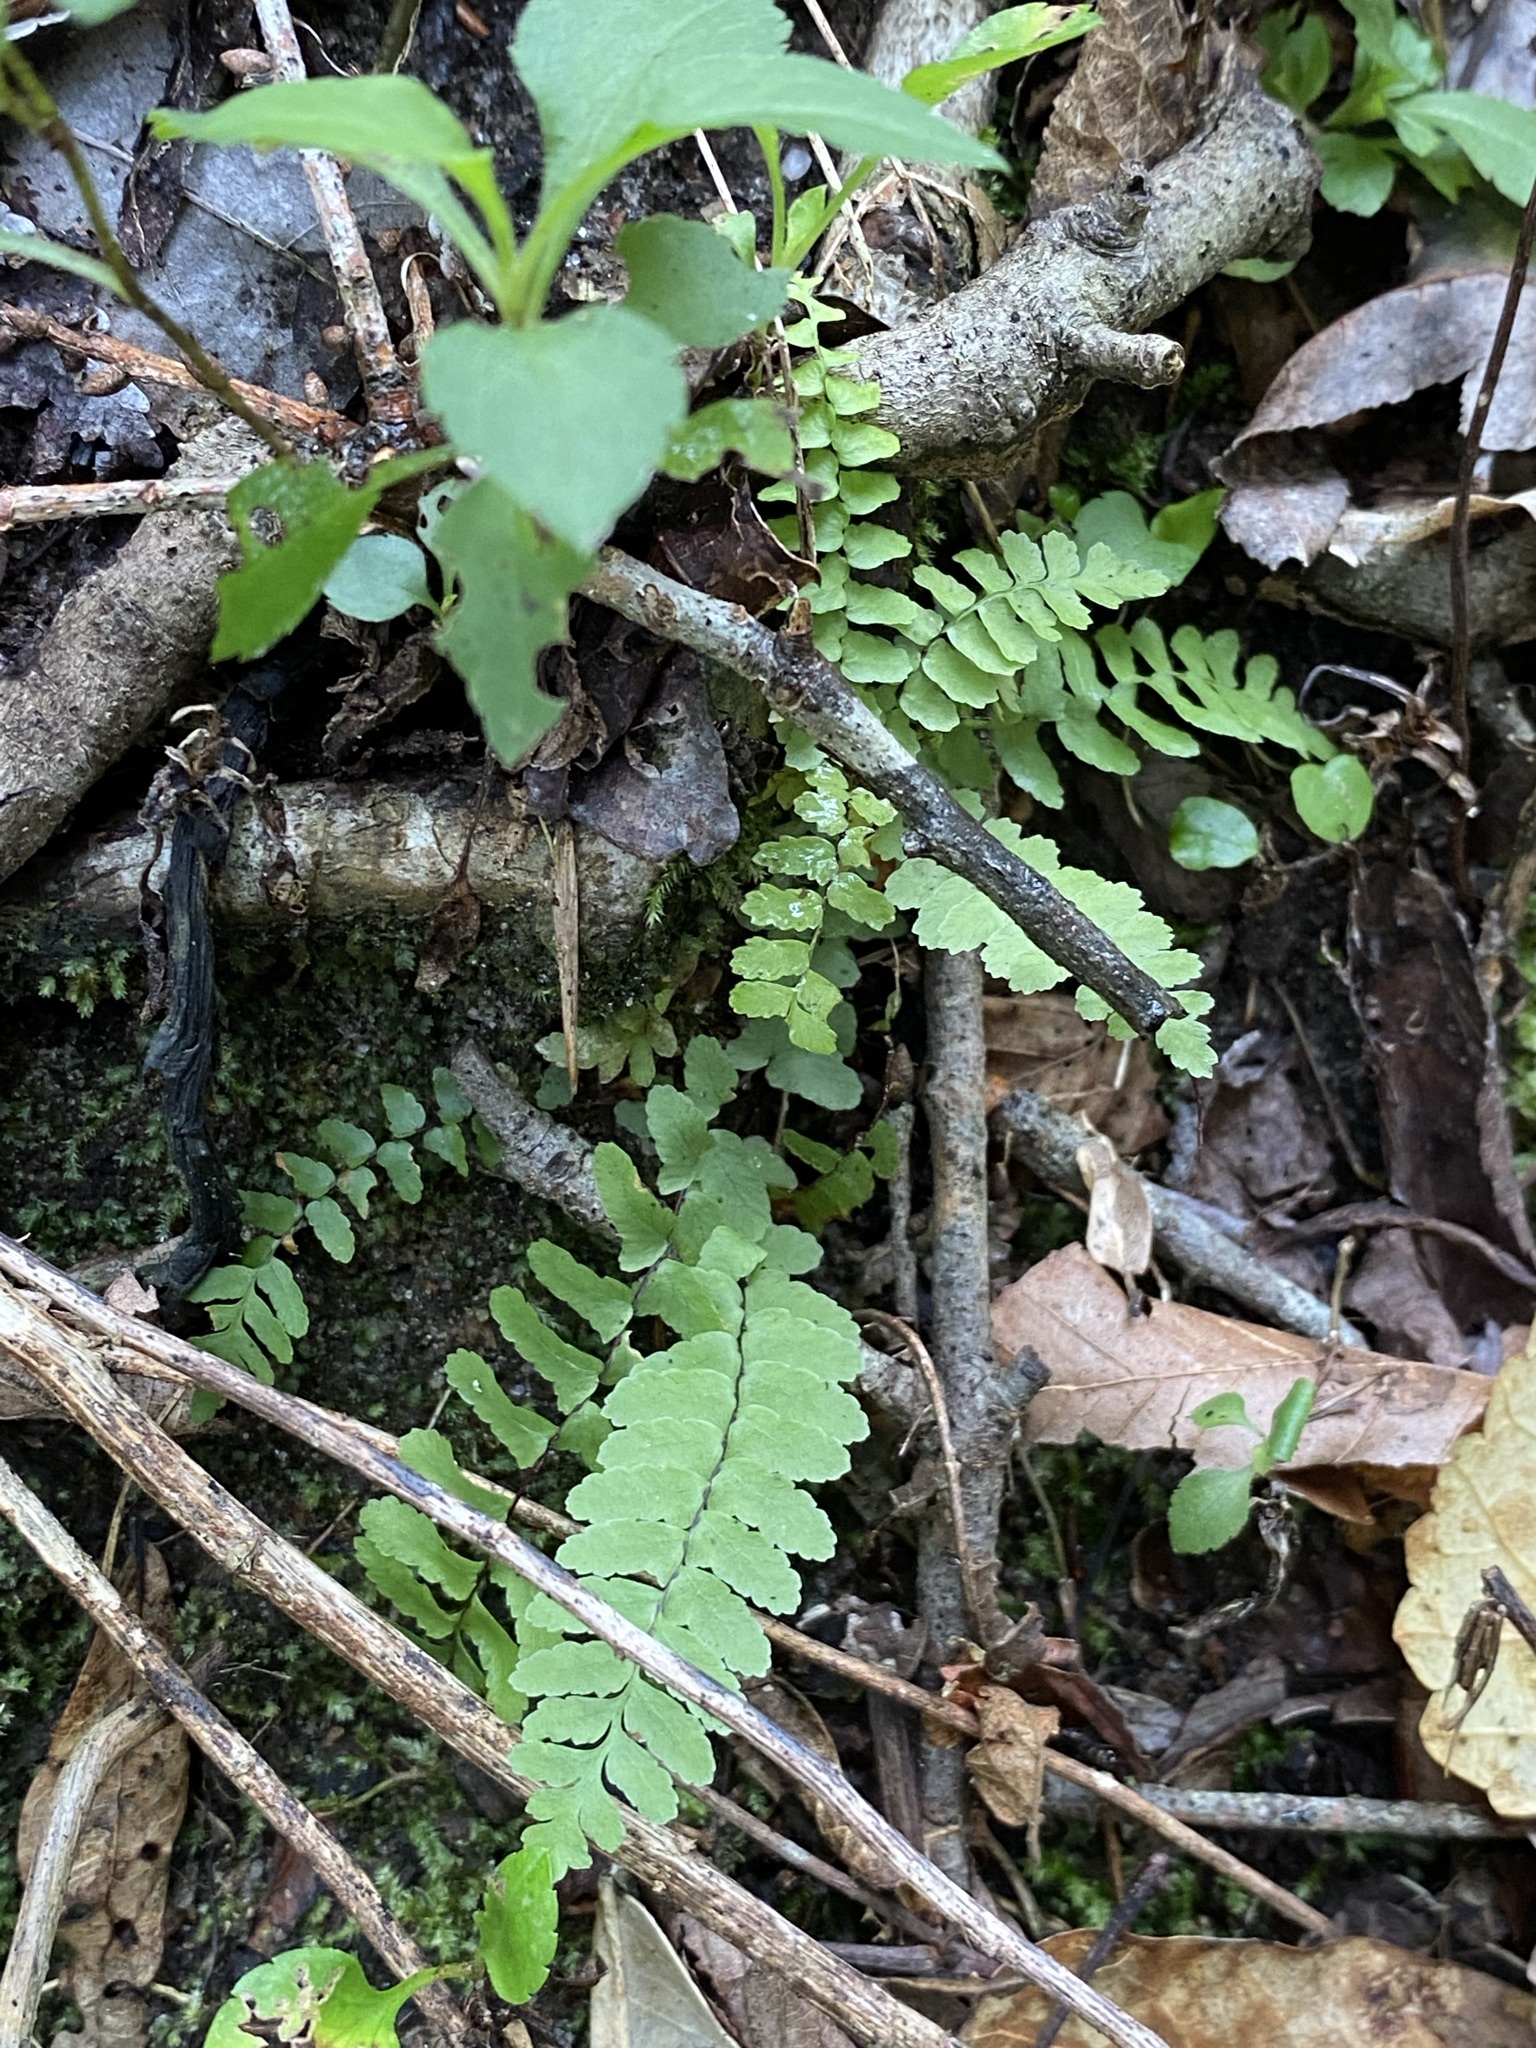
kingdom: Plantae
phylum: Tracheophyta
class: Polypodiopsida
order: Polypodiales
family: Aspleniaceae
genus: Asplenium
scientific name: Asplenium platyneuron
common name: Ebony spleenwort
